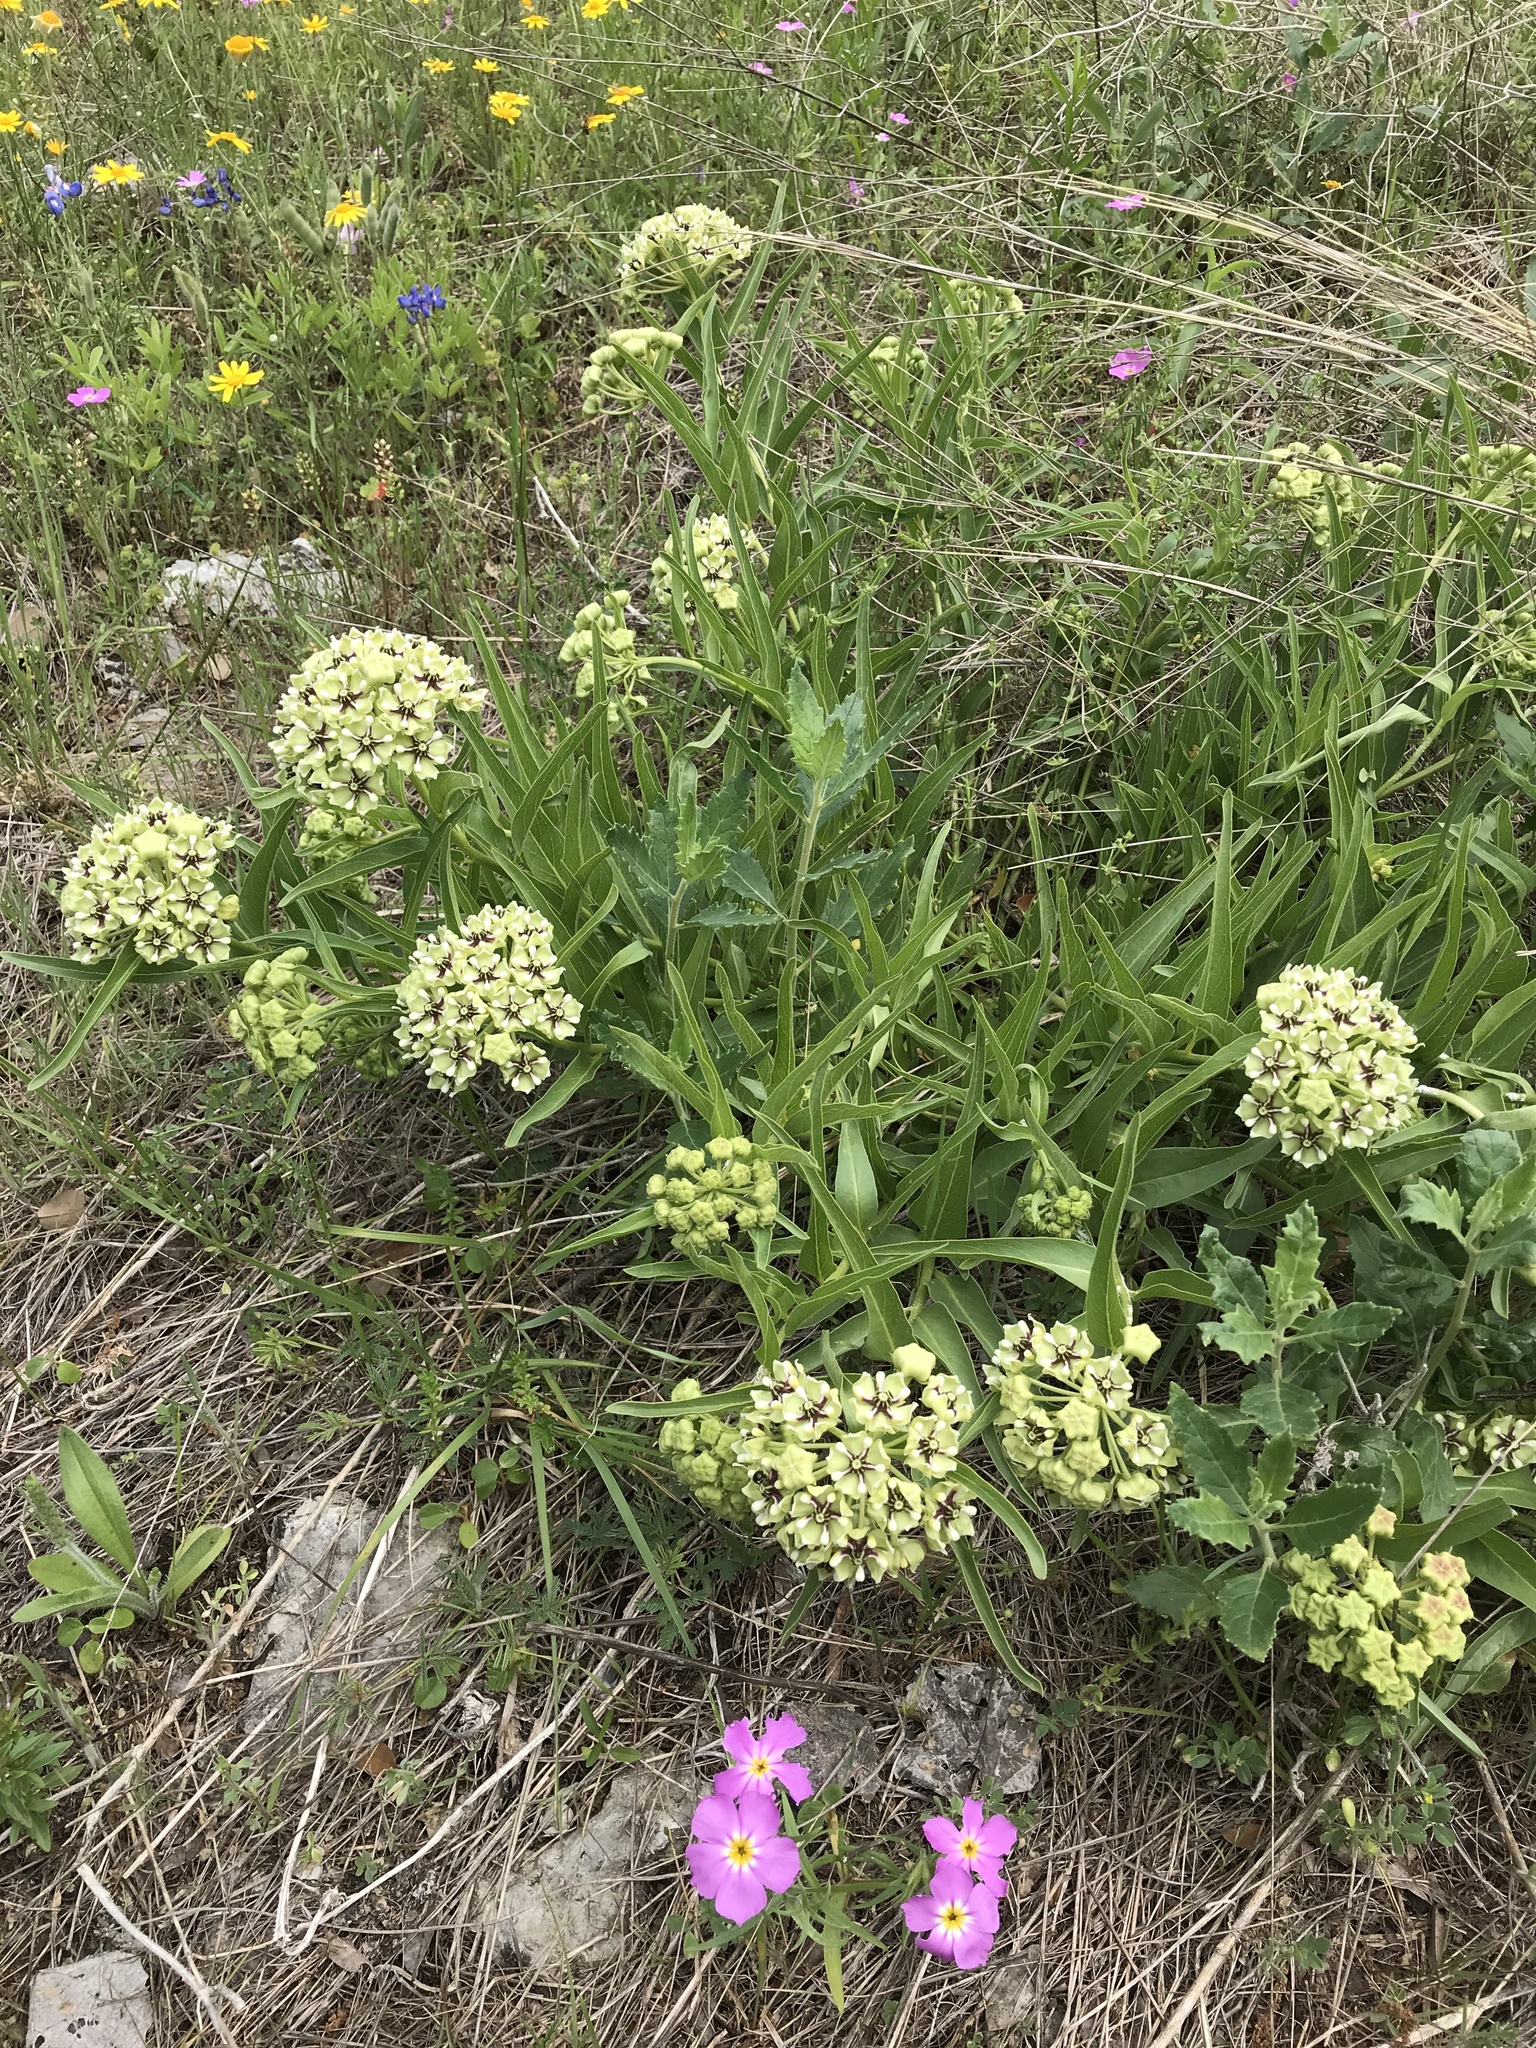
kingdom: Plantae
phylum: Tracheophyta
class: Magnoliopsida
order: Gentianales
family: Apocynaceae
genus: Asclepias
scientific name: Asclepias asperula
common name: Antelope horns
